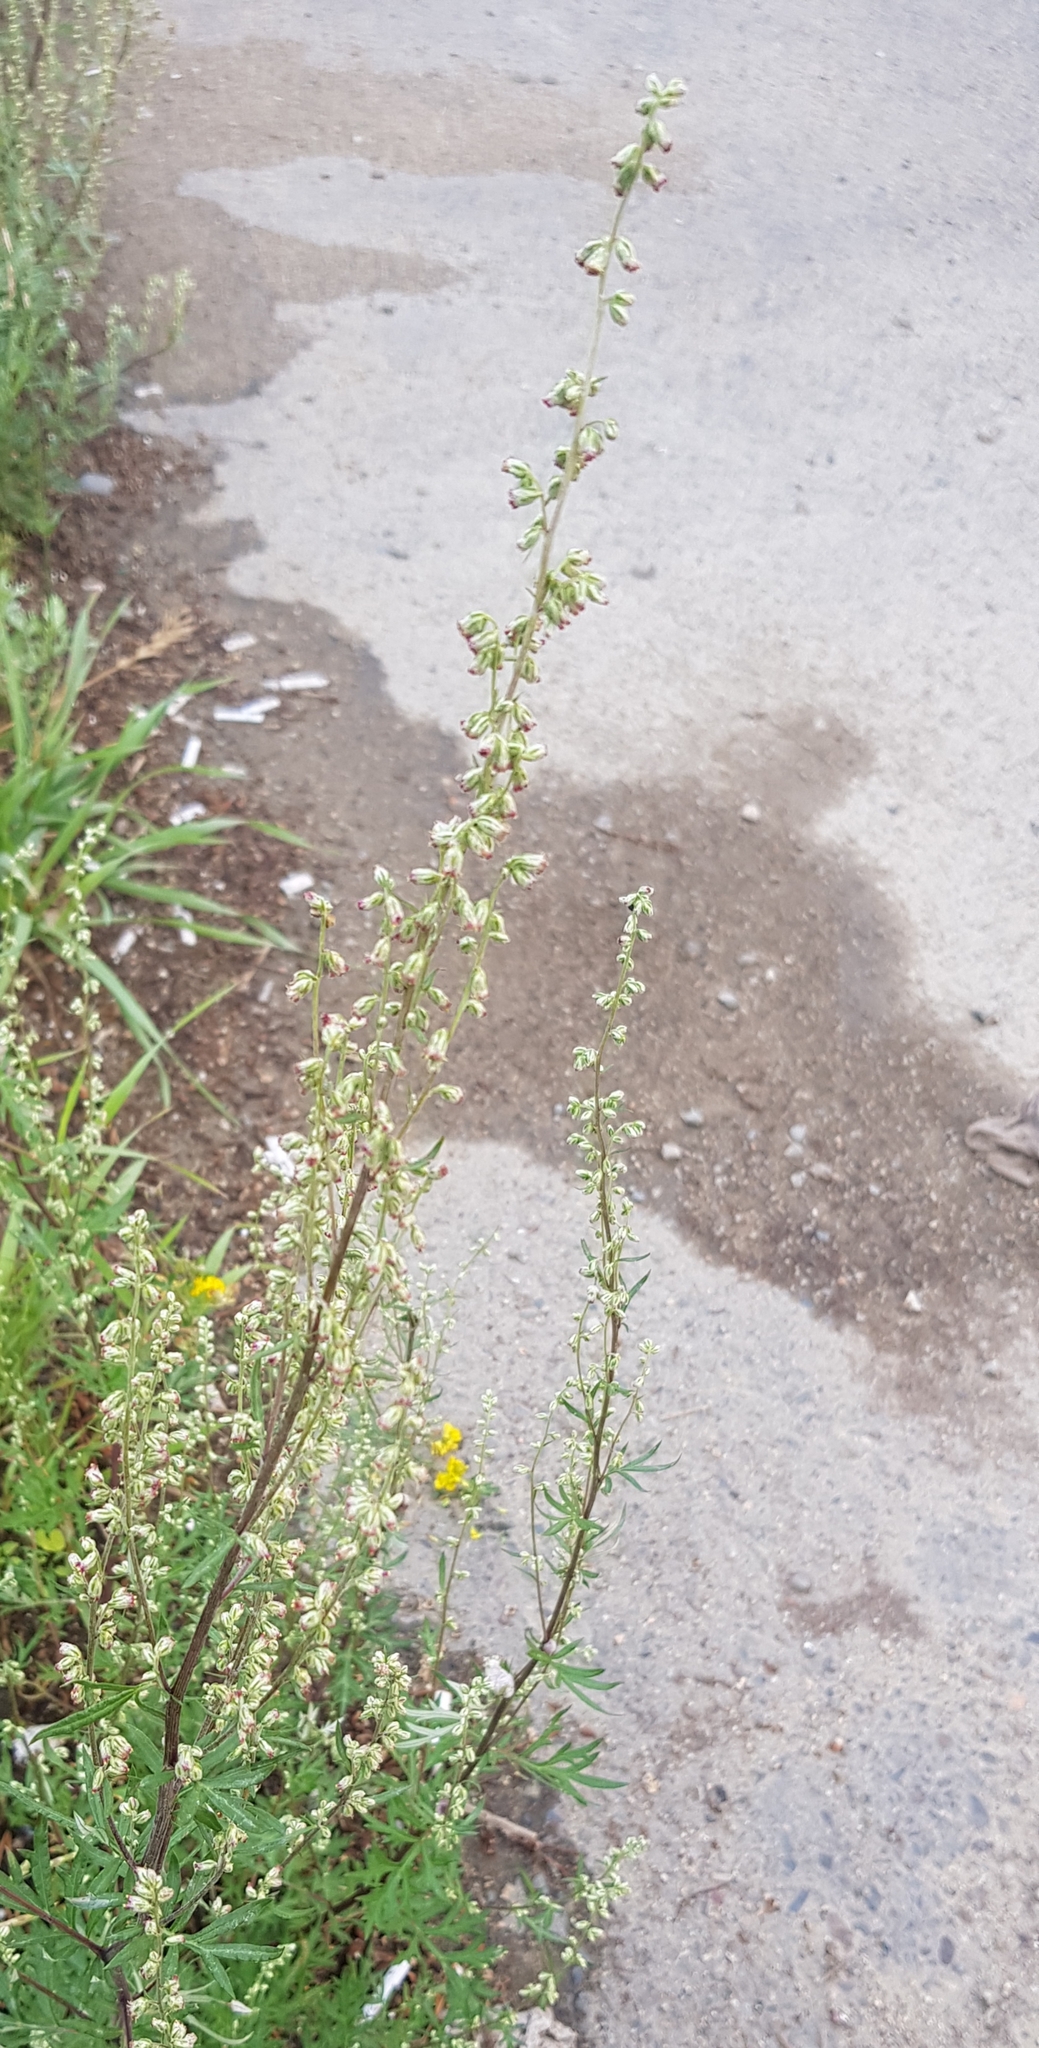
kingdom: Plantae
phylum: Tracheophyta
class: Magnoliopsida
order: Asterales
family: Asteraceae
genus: Artemisia
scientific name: Artemisia vulgaris
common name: Mugwort
